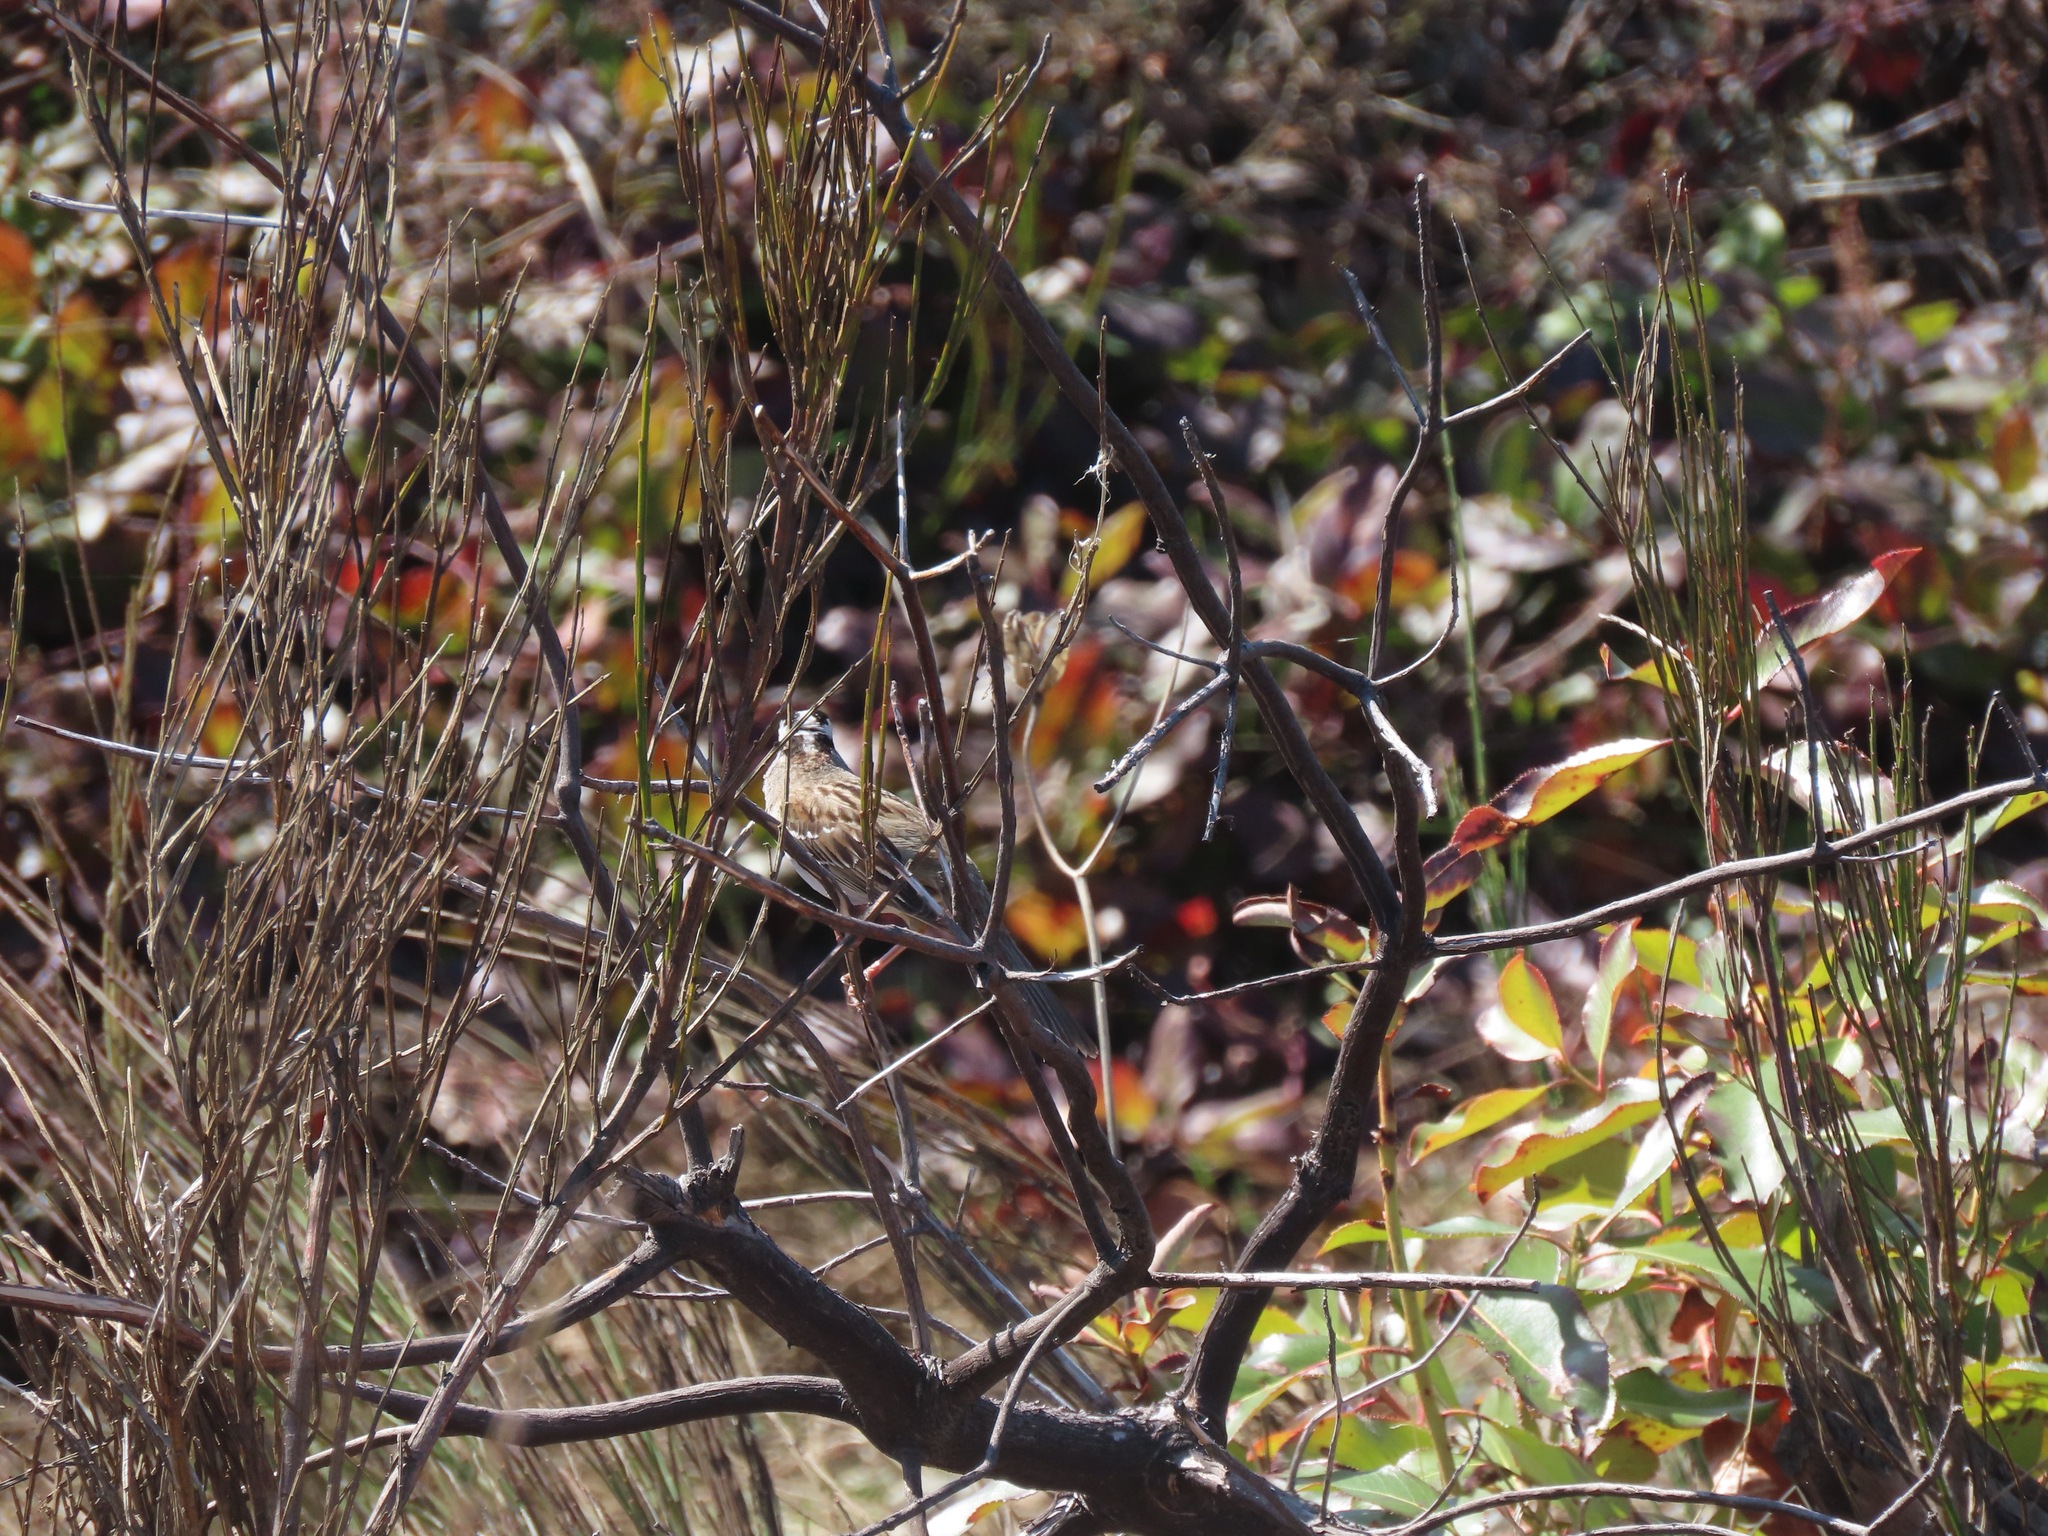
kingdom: Animalia
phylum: Chordata
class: Aves
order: Passeriformes
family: Passerellidae
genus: Zonotrichia
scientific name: Zonotrichia leucophrys
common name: White-crowned sparrow
